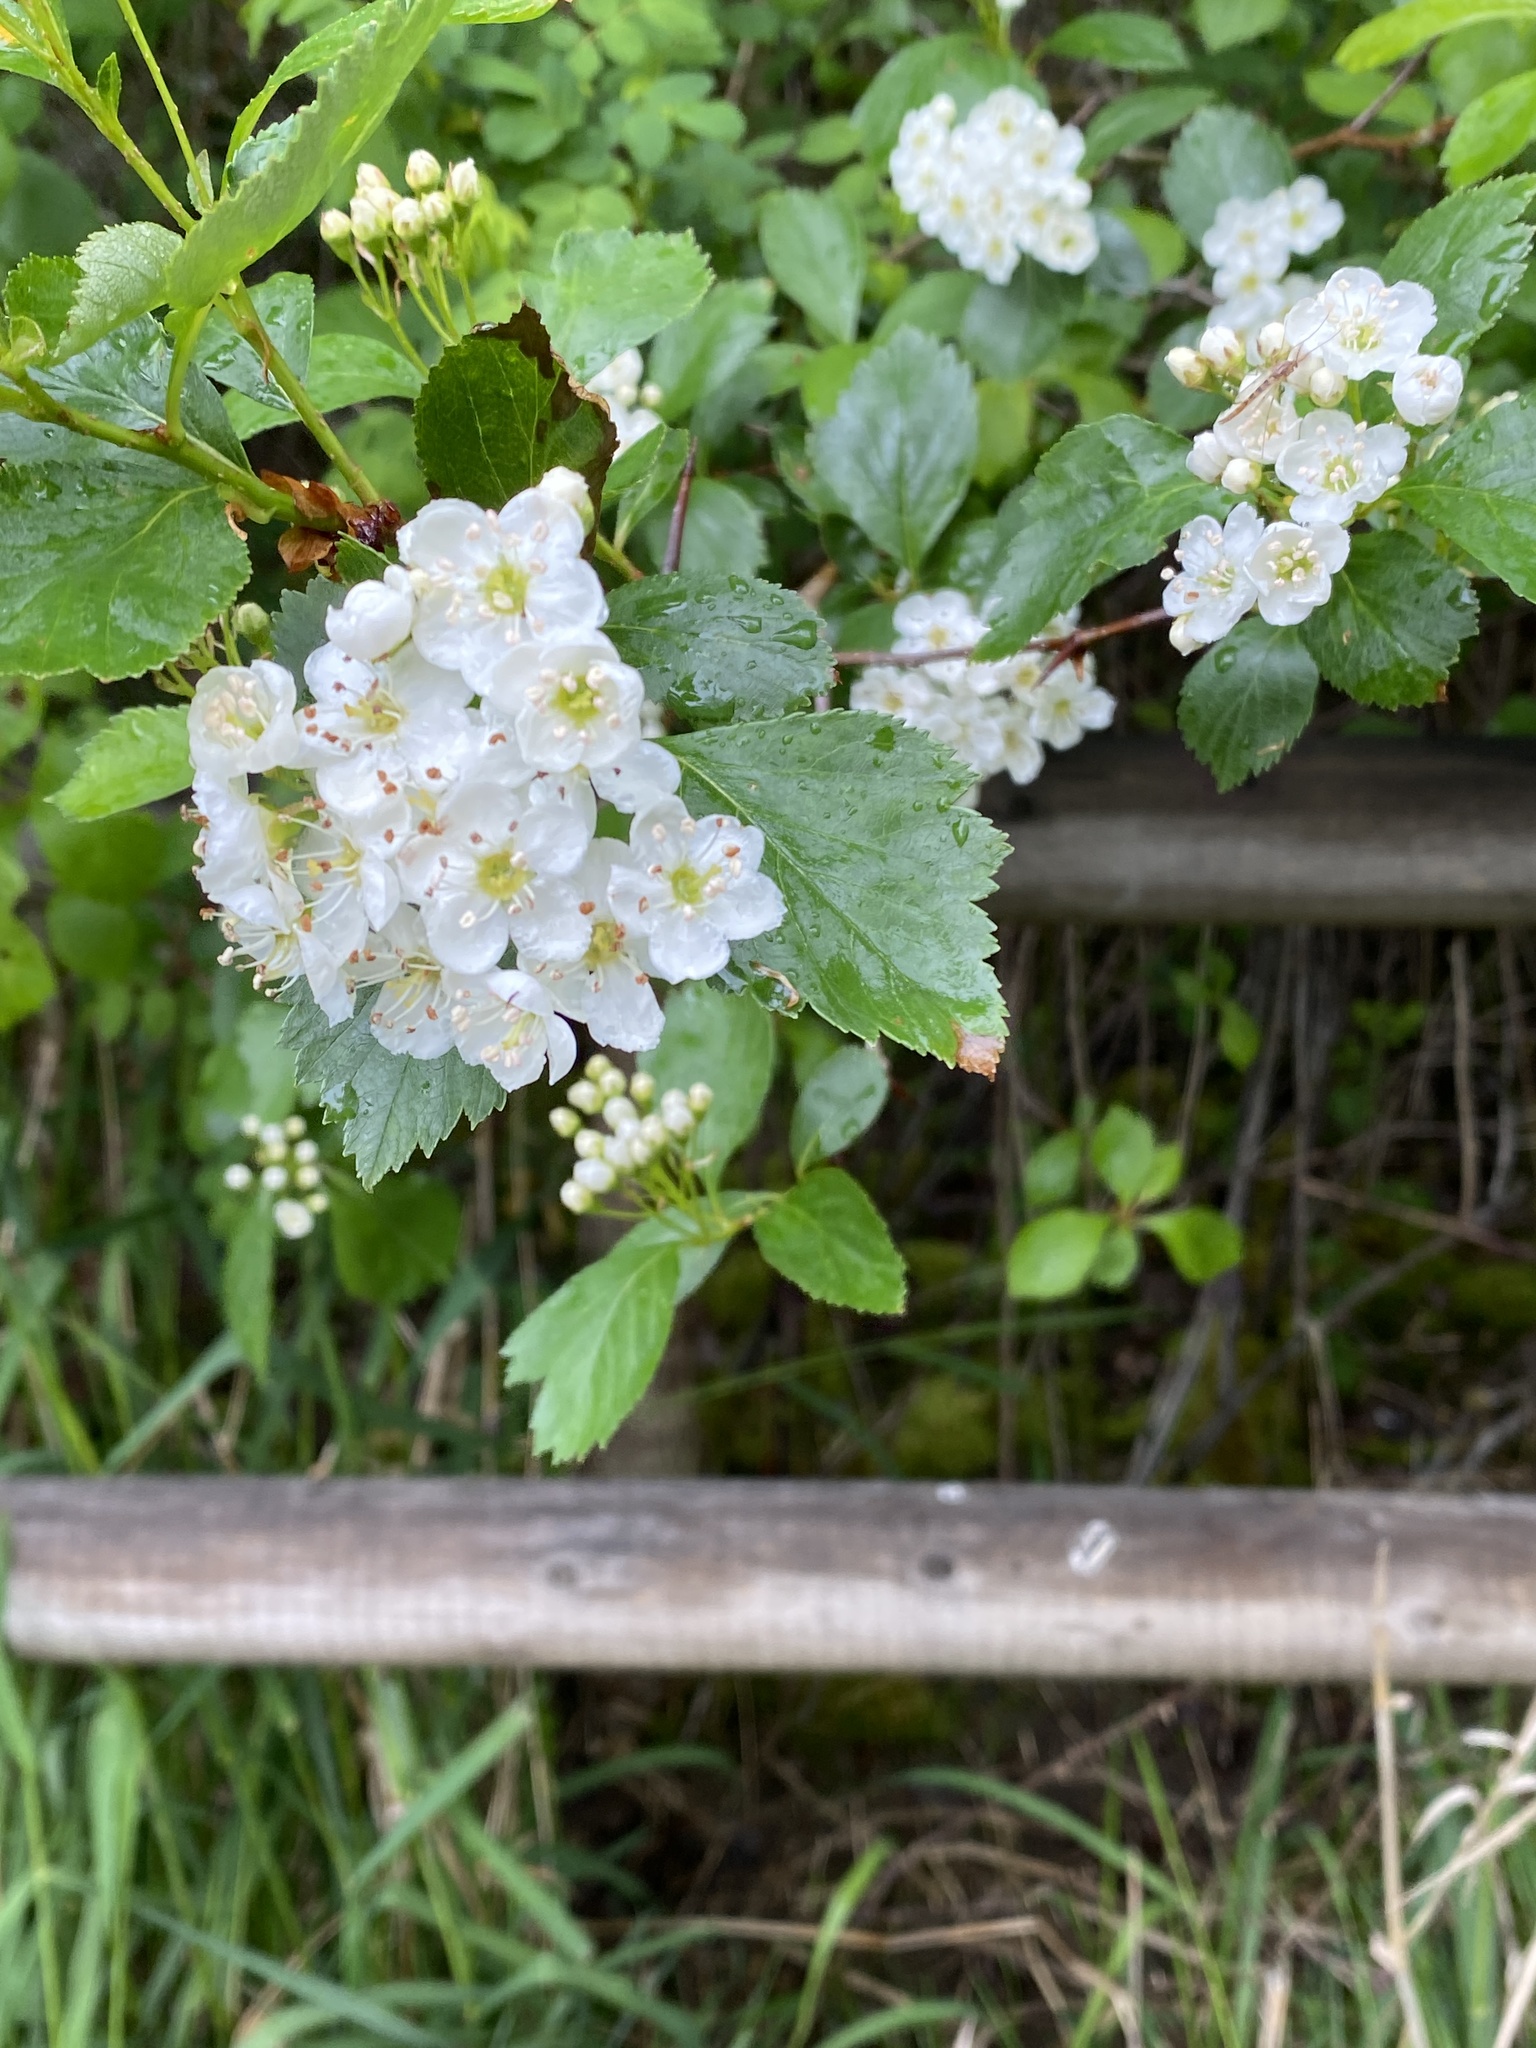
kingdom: Plantae
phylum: Tracheophyta
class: Magnoliopsida
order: Rosales
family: Rosaceae
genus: Crataegus
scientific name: Crataegus monogyna
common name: Hawthorn
